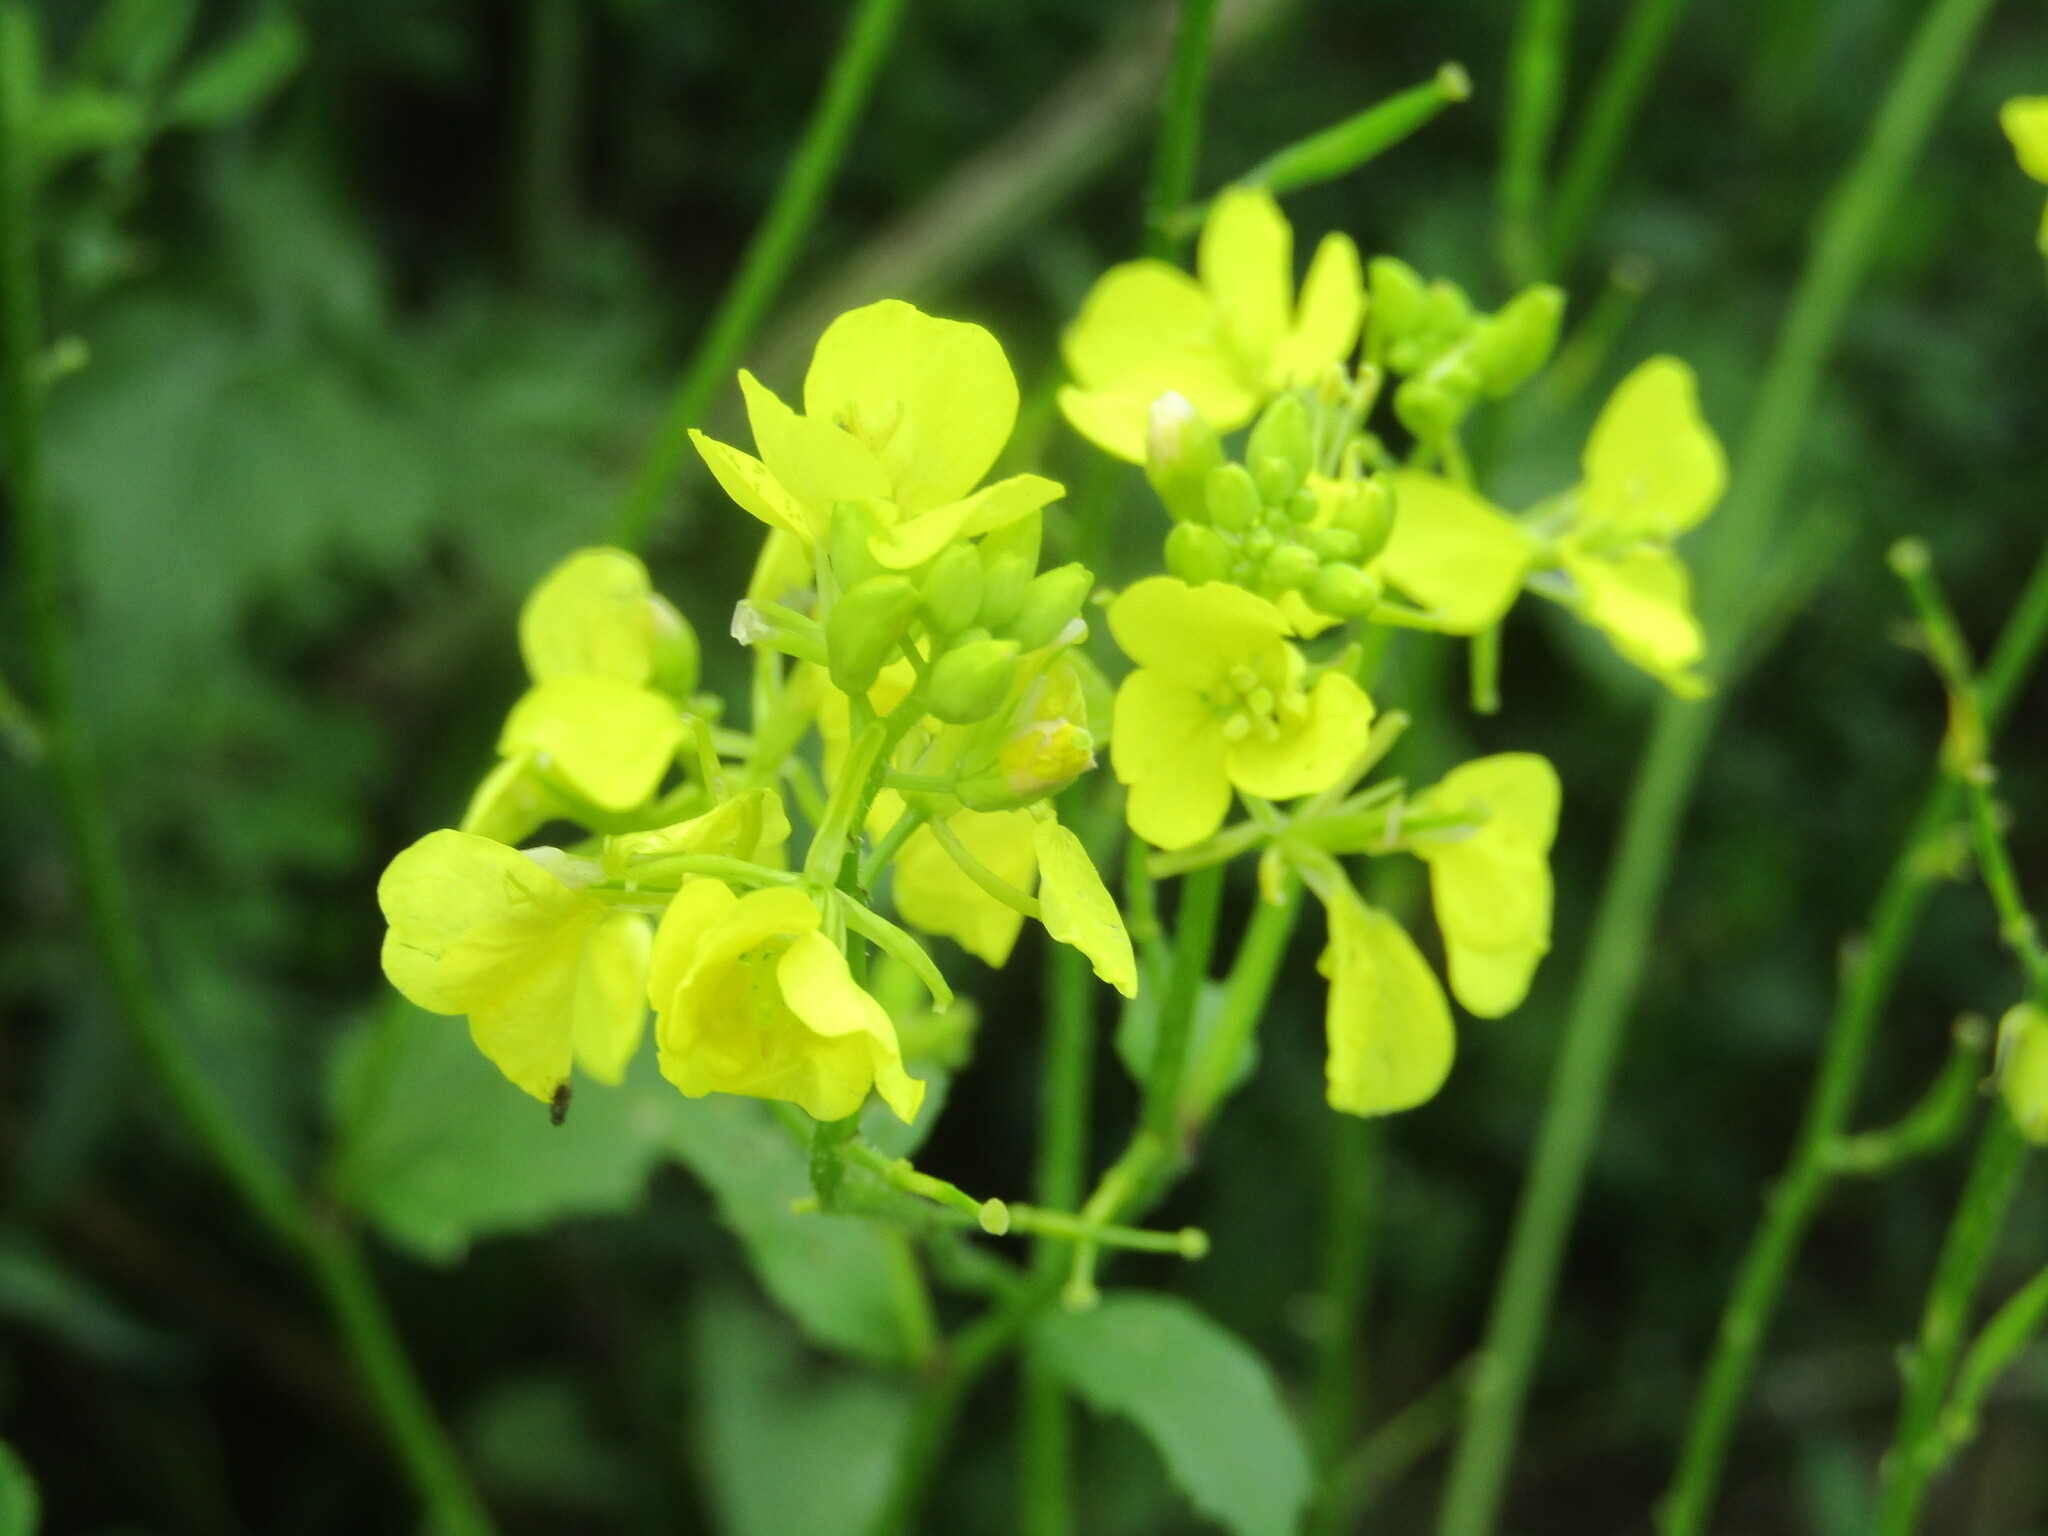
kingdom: Plantae
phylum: Tracheophyta
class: Magnoliopsida
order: Brassicales
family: Brassicaceae
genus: Sinapis
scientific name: Sinapis arvensis
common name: Charlock
